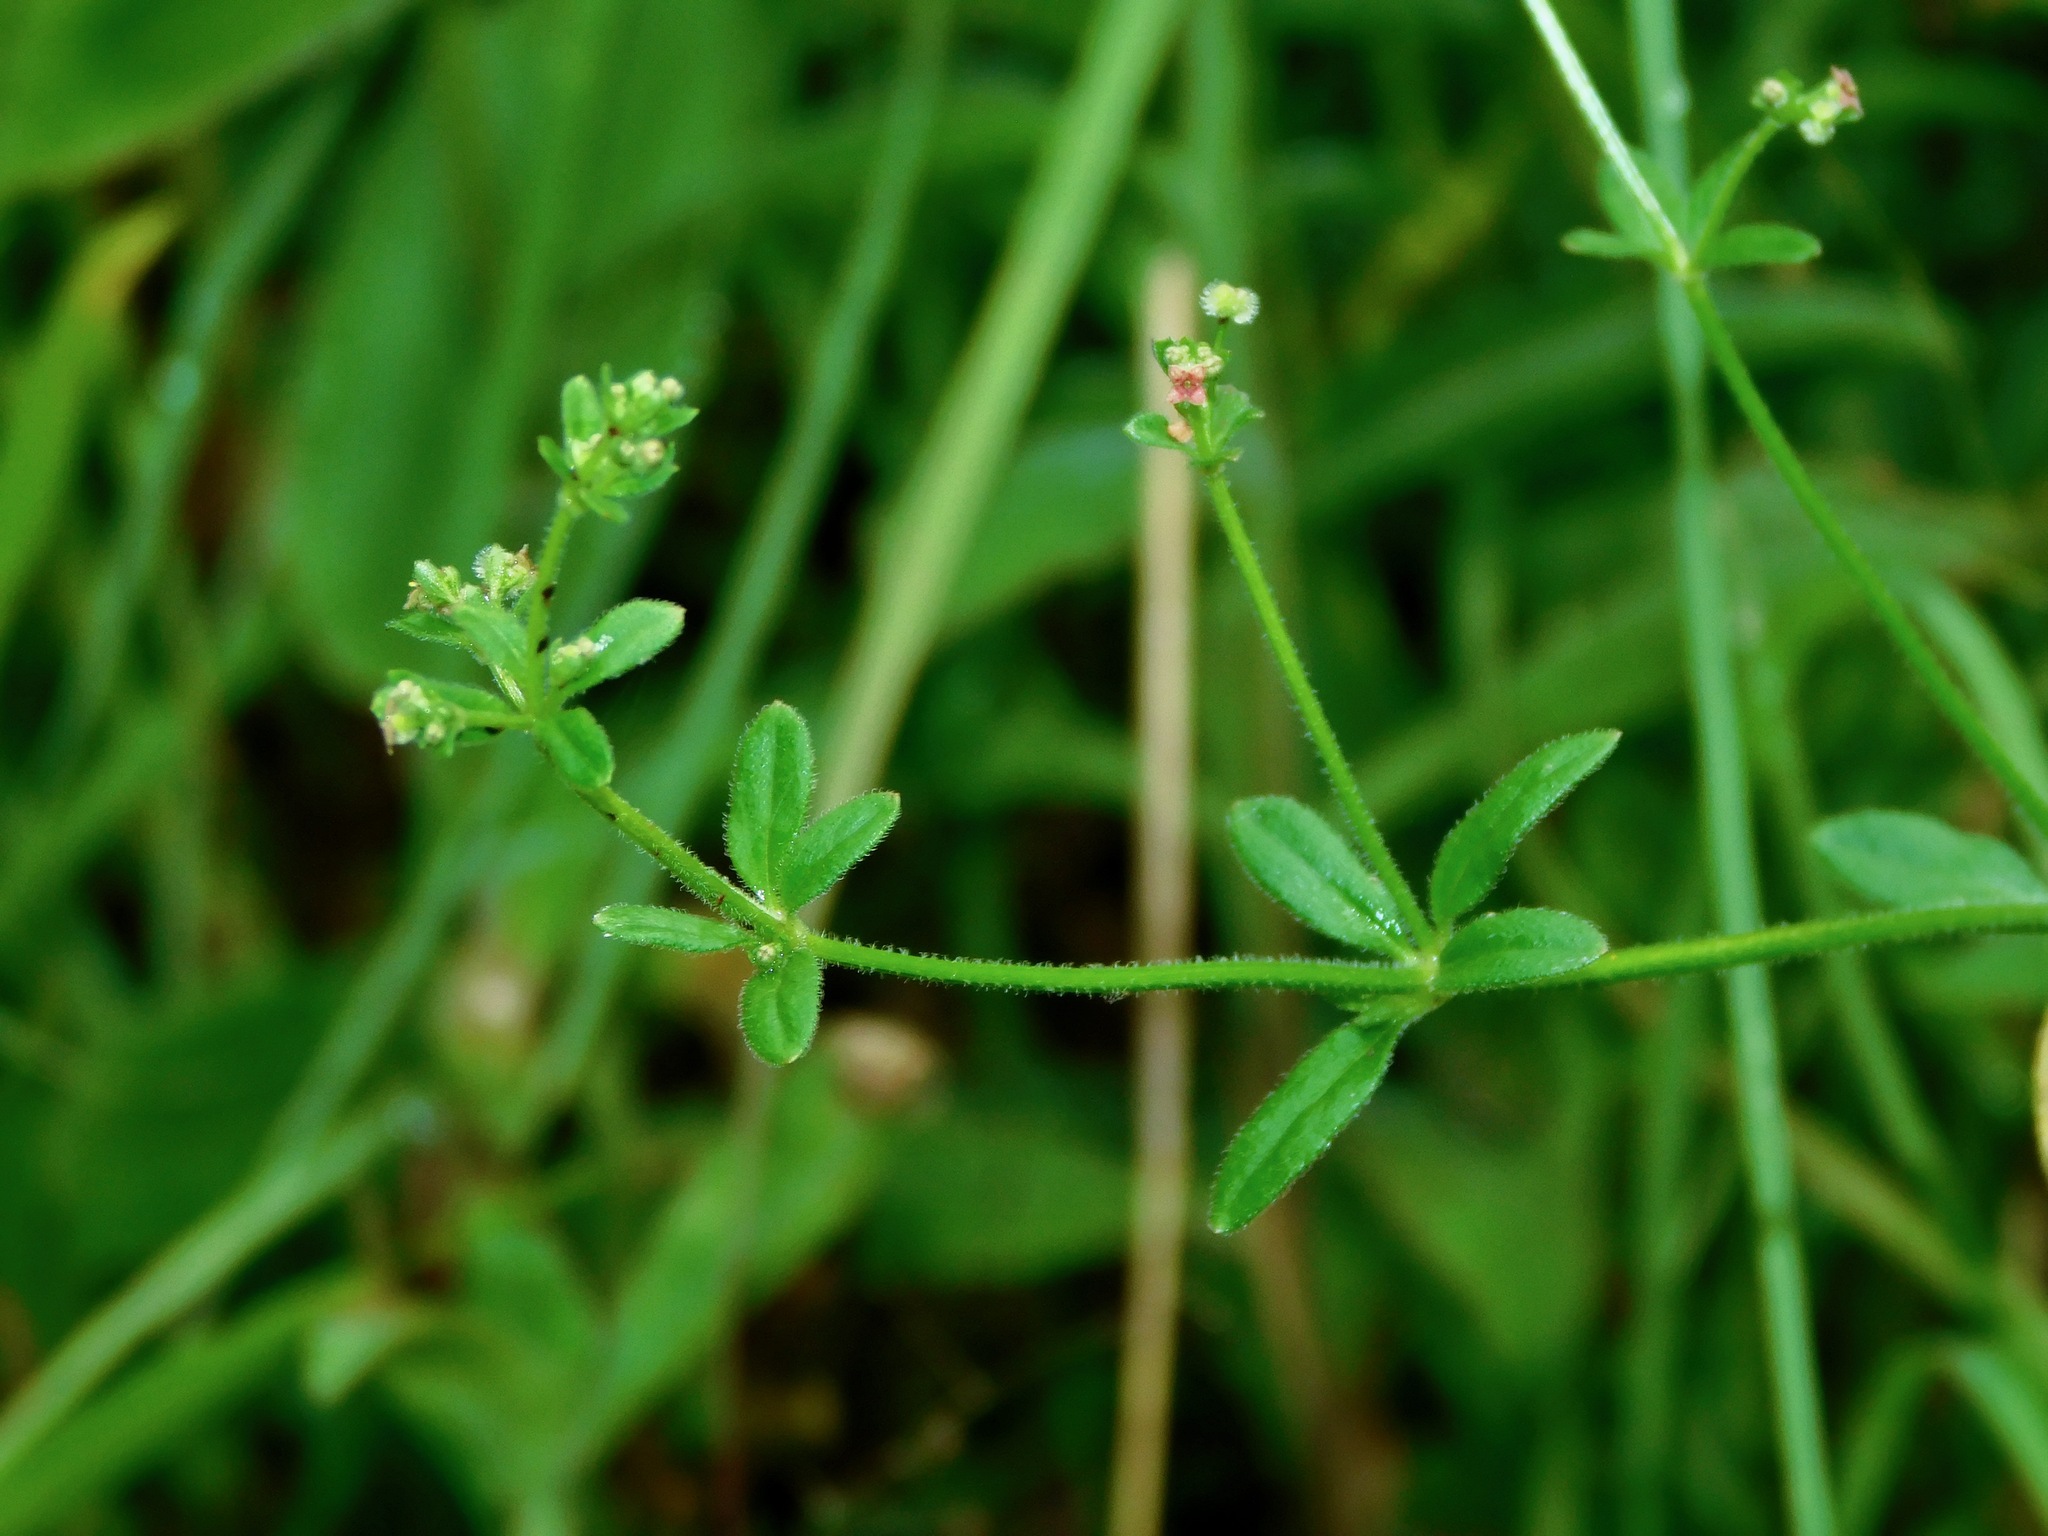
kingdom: Plantae
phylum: Tracheophyta
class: Magnoliopsida
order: Gentianales
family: Rubiaceae
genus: Galium
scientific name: Galium pilosum
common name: Hairy bedstraw
